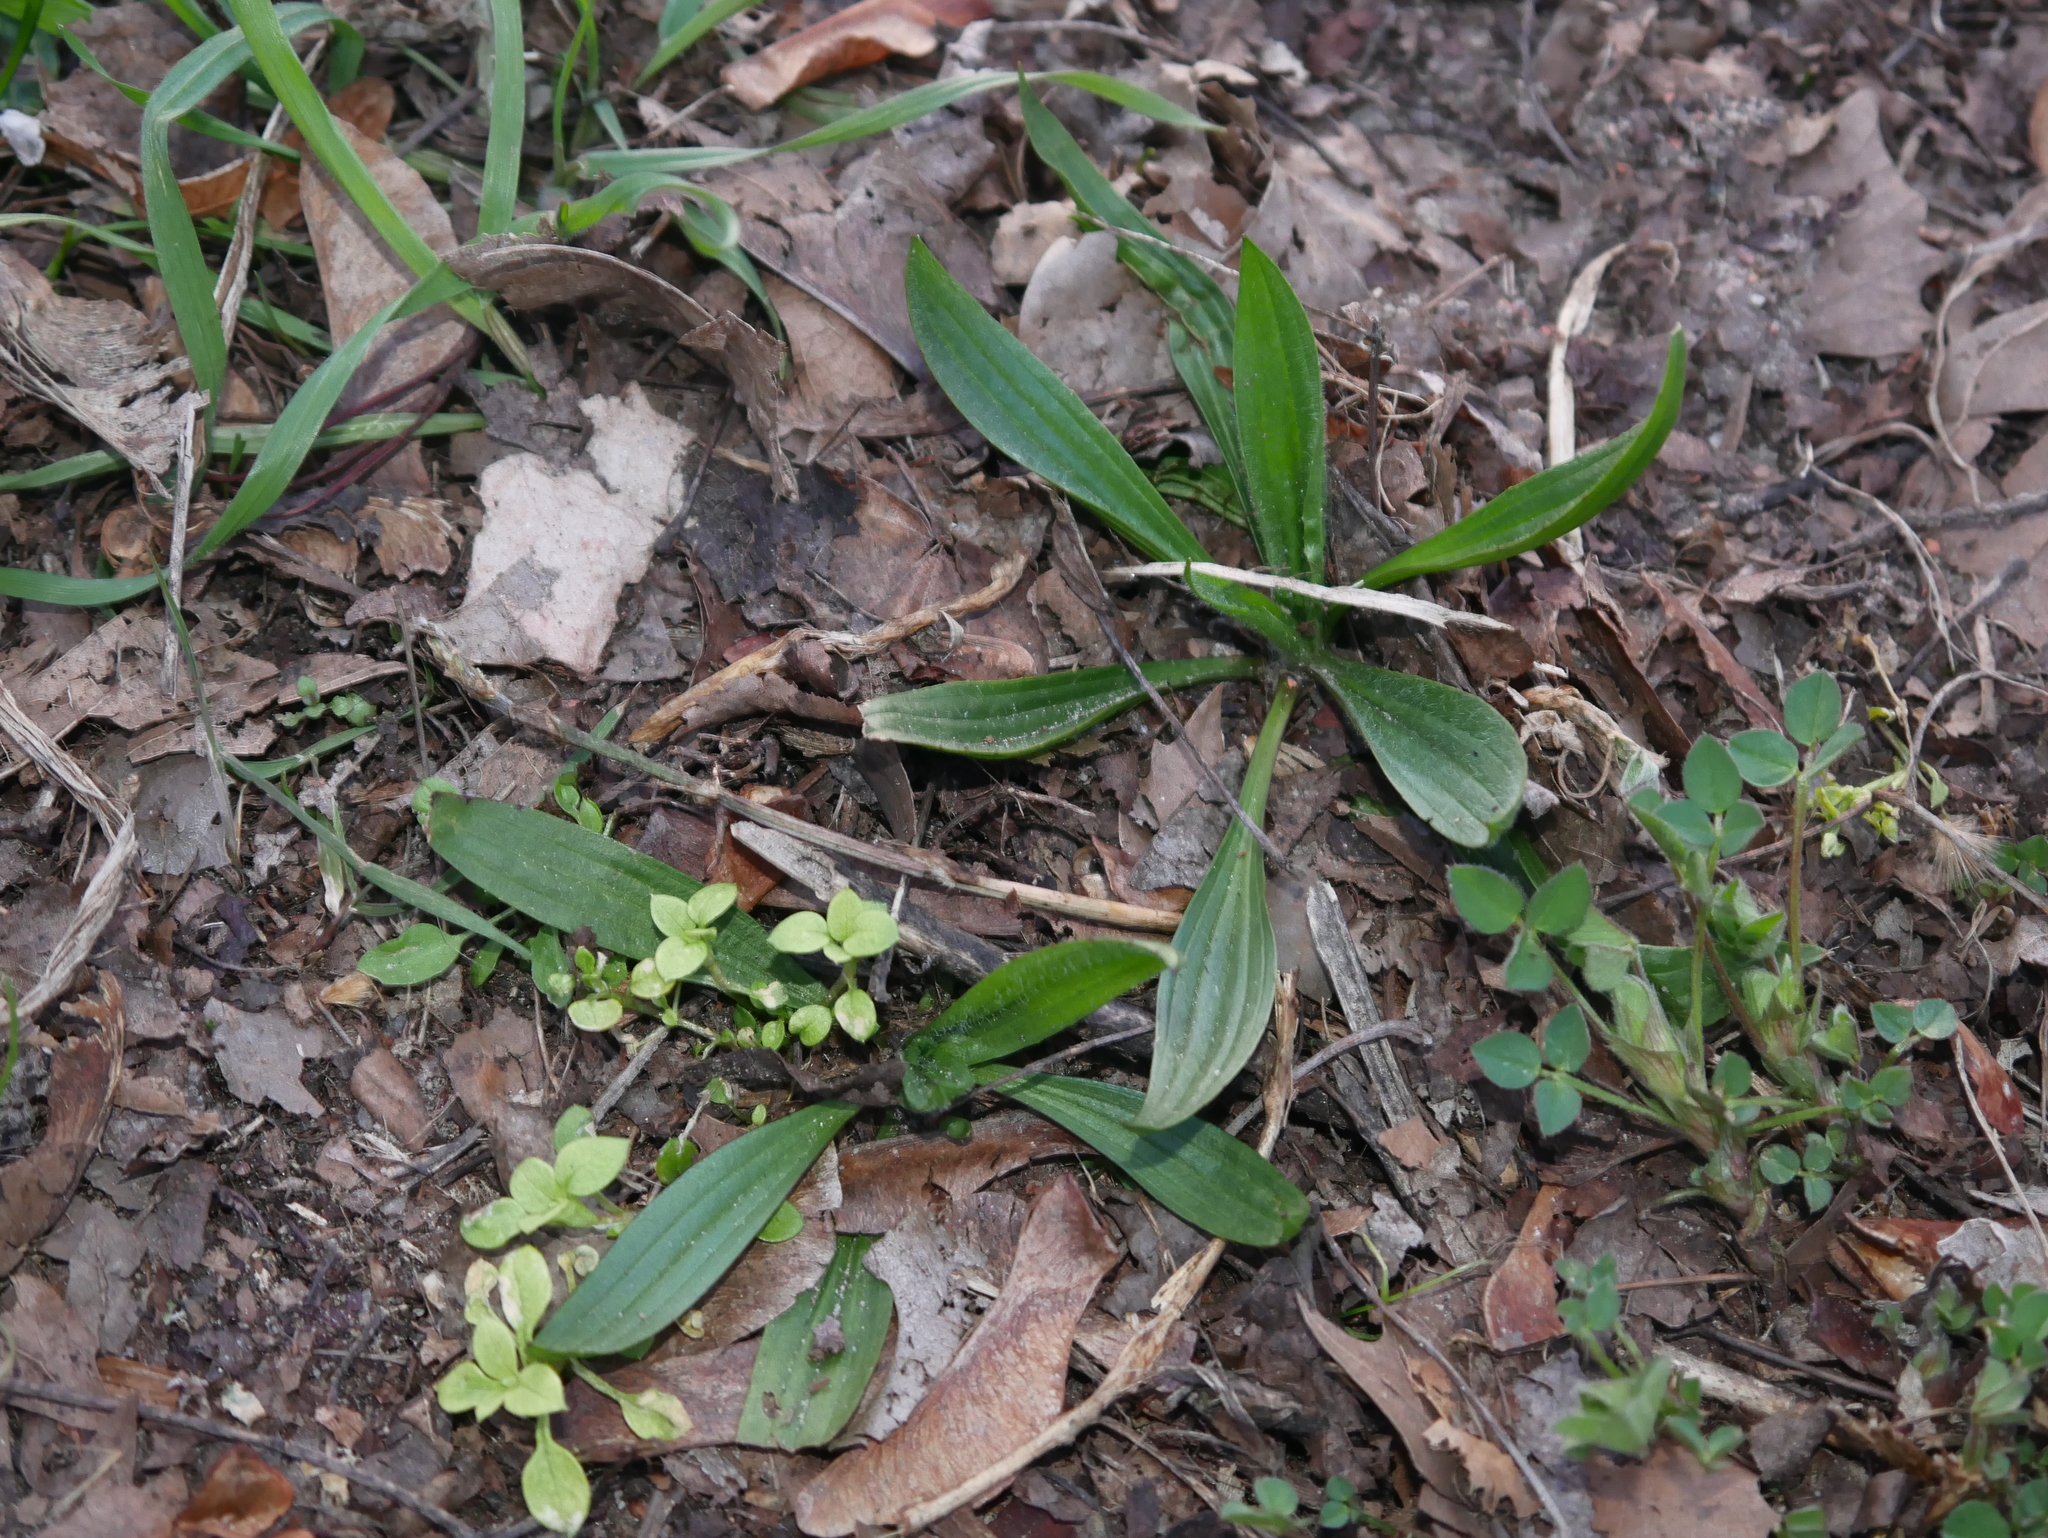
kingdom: Plantae
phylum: Tracheophyta
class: Magnoliopsida
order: Lamiales
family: Plantaginaceae
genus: Plantago
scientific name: Plantago lanceolata
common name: Ribwort plantain
